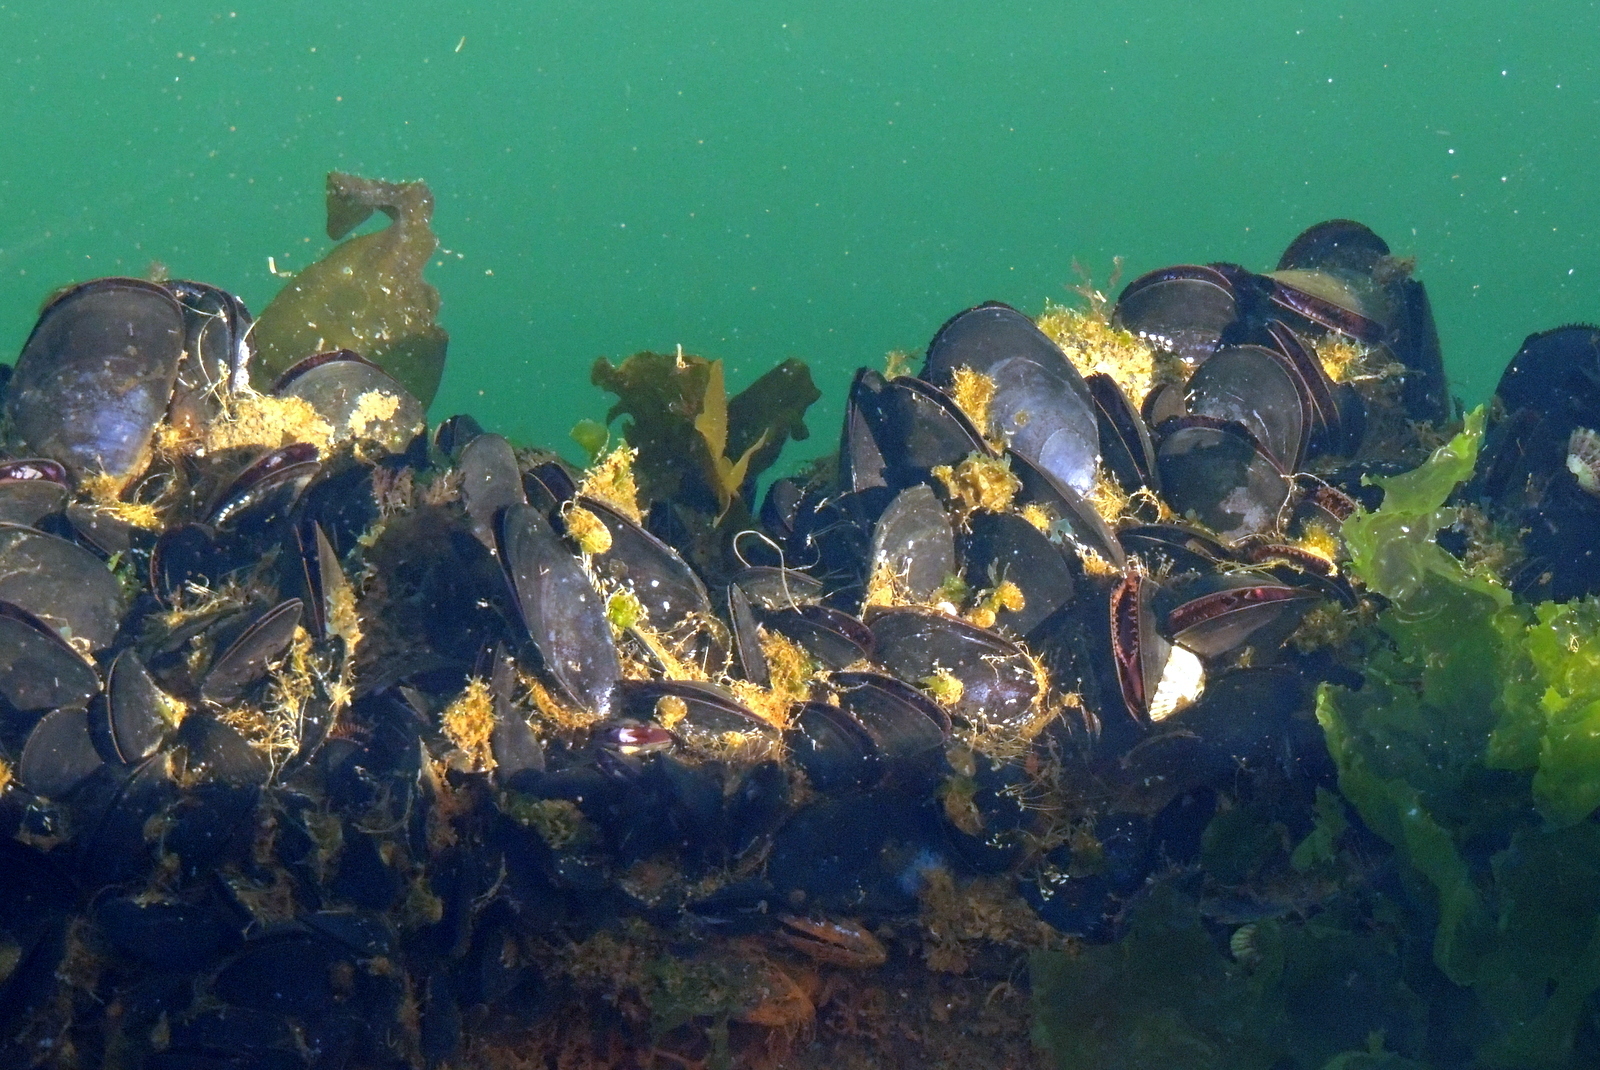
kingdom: Animalia
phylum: Mollusca
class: Bivalvia
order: Mytilida
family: Mytilidae
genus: Mytilus
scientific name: Mytilus galloprovincialis
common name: Mediterranean mussel
